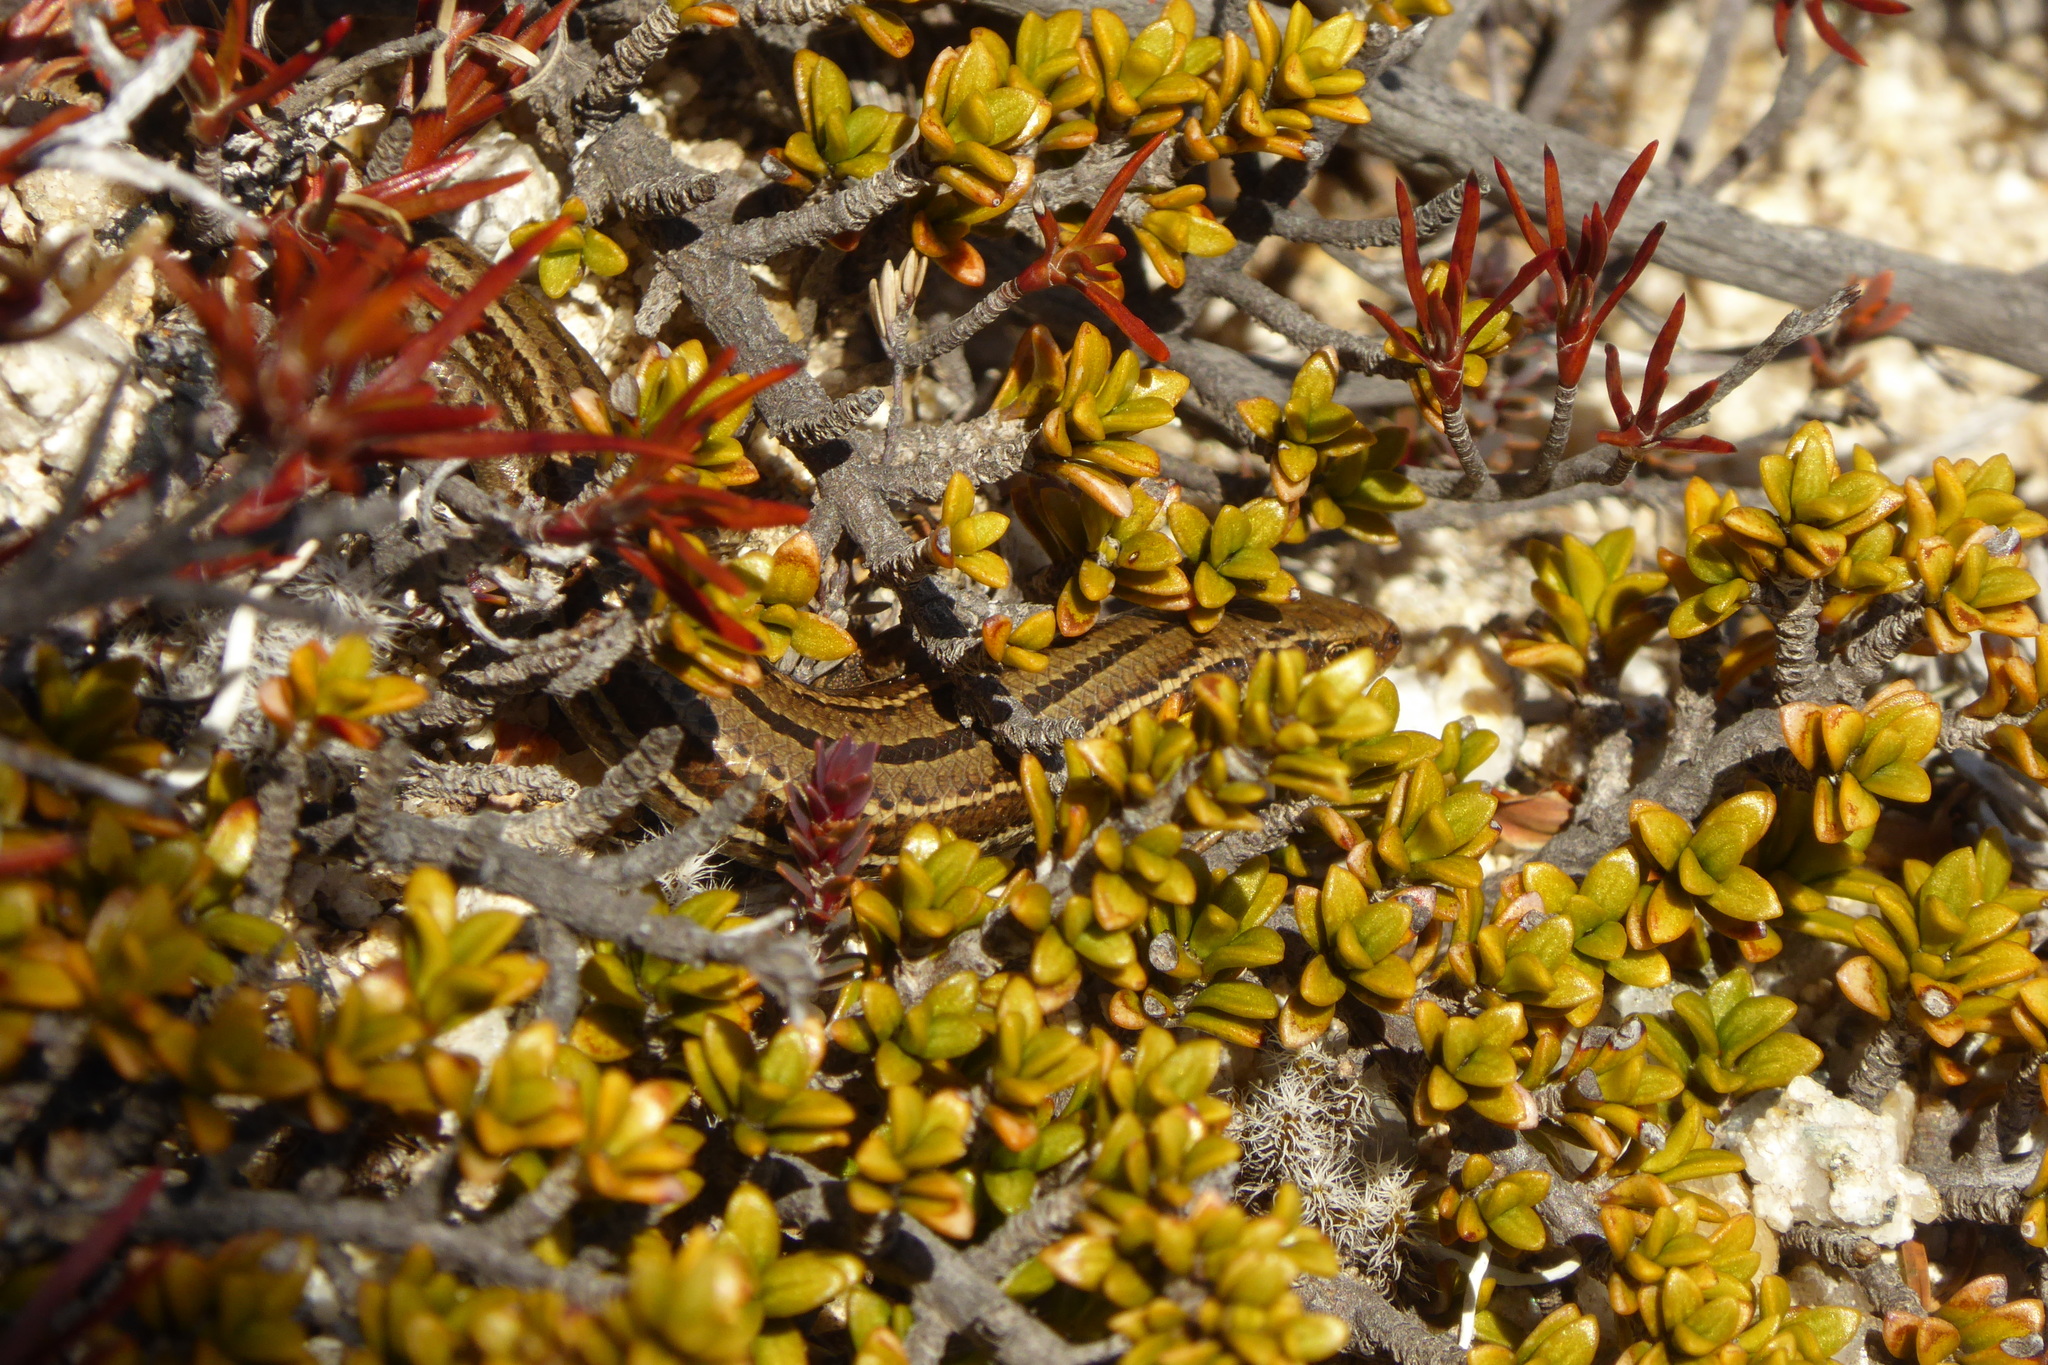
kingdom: Animalia
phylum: Chordata
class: Squamata
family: Scincidae
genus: Oligosoma
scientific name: Oligosoma repens
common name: Eyres skink
